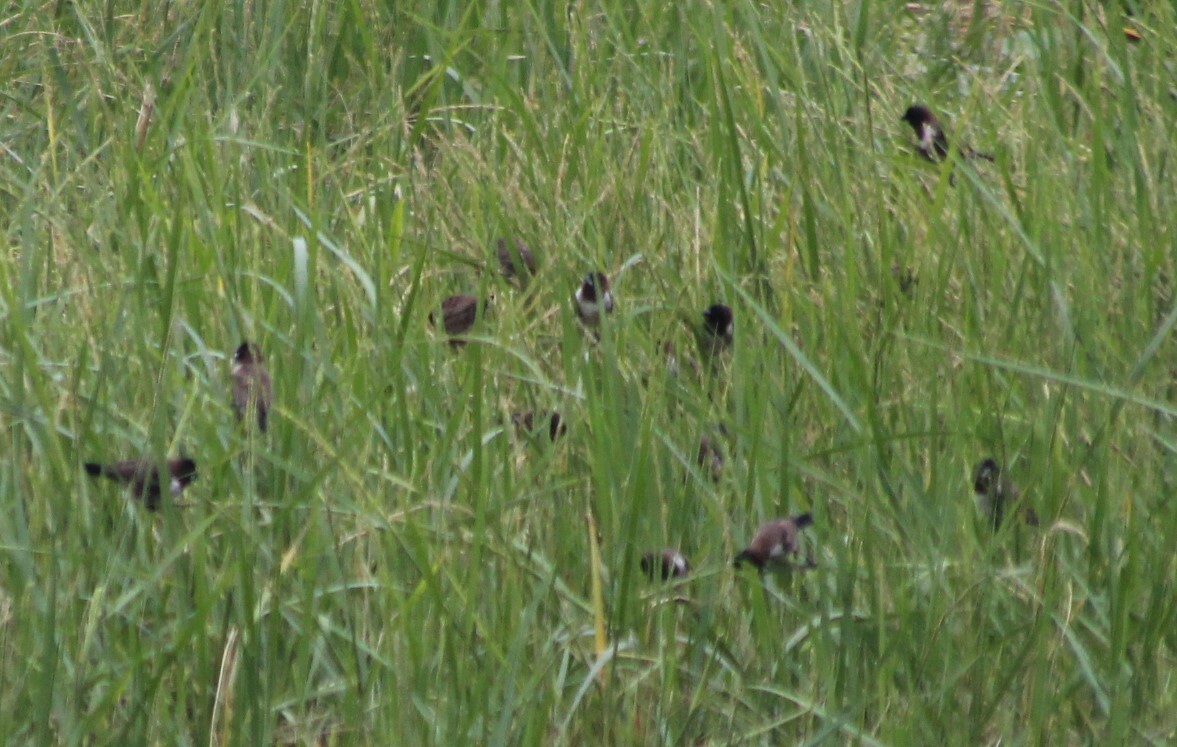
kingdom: Animalia
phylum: Chordata
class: Aves
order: Passeriformes
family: Estrildidae
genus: Lonchura
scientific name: Lonchura cucullata
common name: Bronze mannikin
